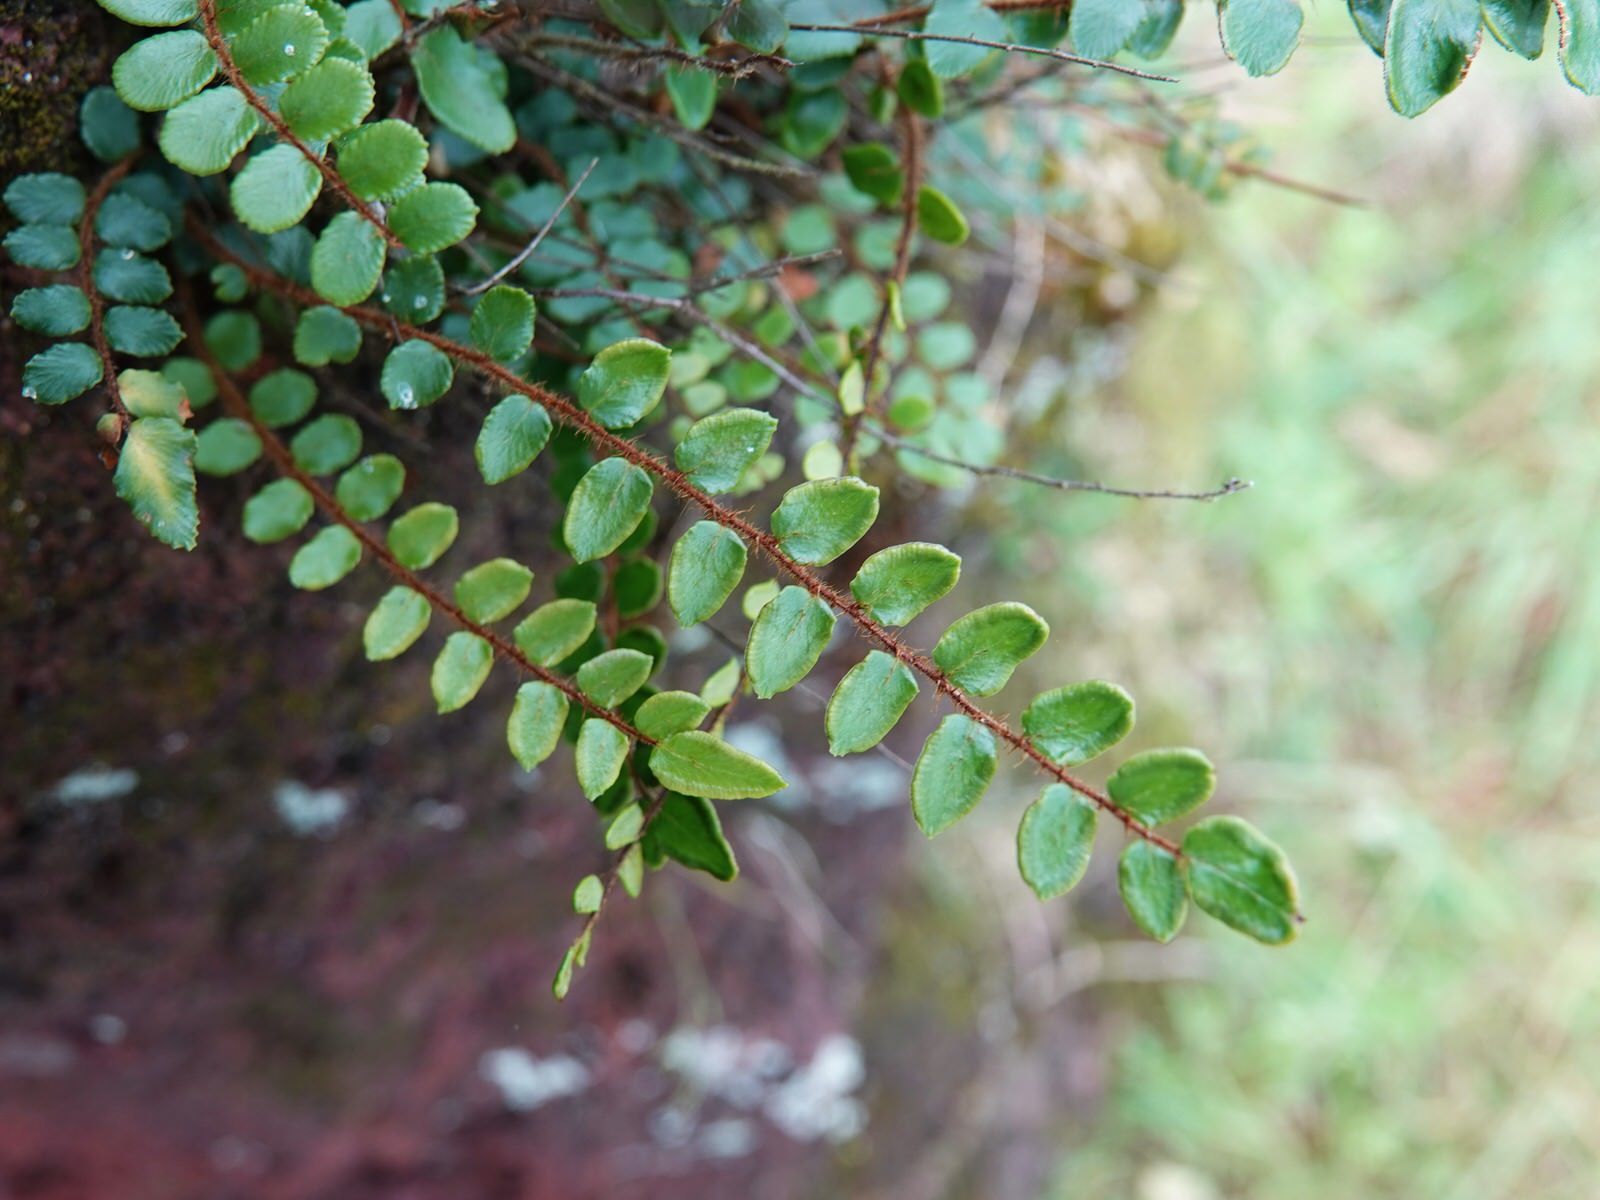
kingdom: Plantae
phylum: Tracheophyta
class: Polypodiopsida
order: Polypodiales
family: Pteridaceae
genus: Pellaea
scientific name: Pellaea rotundifolia
